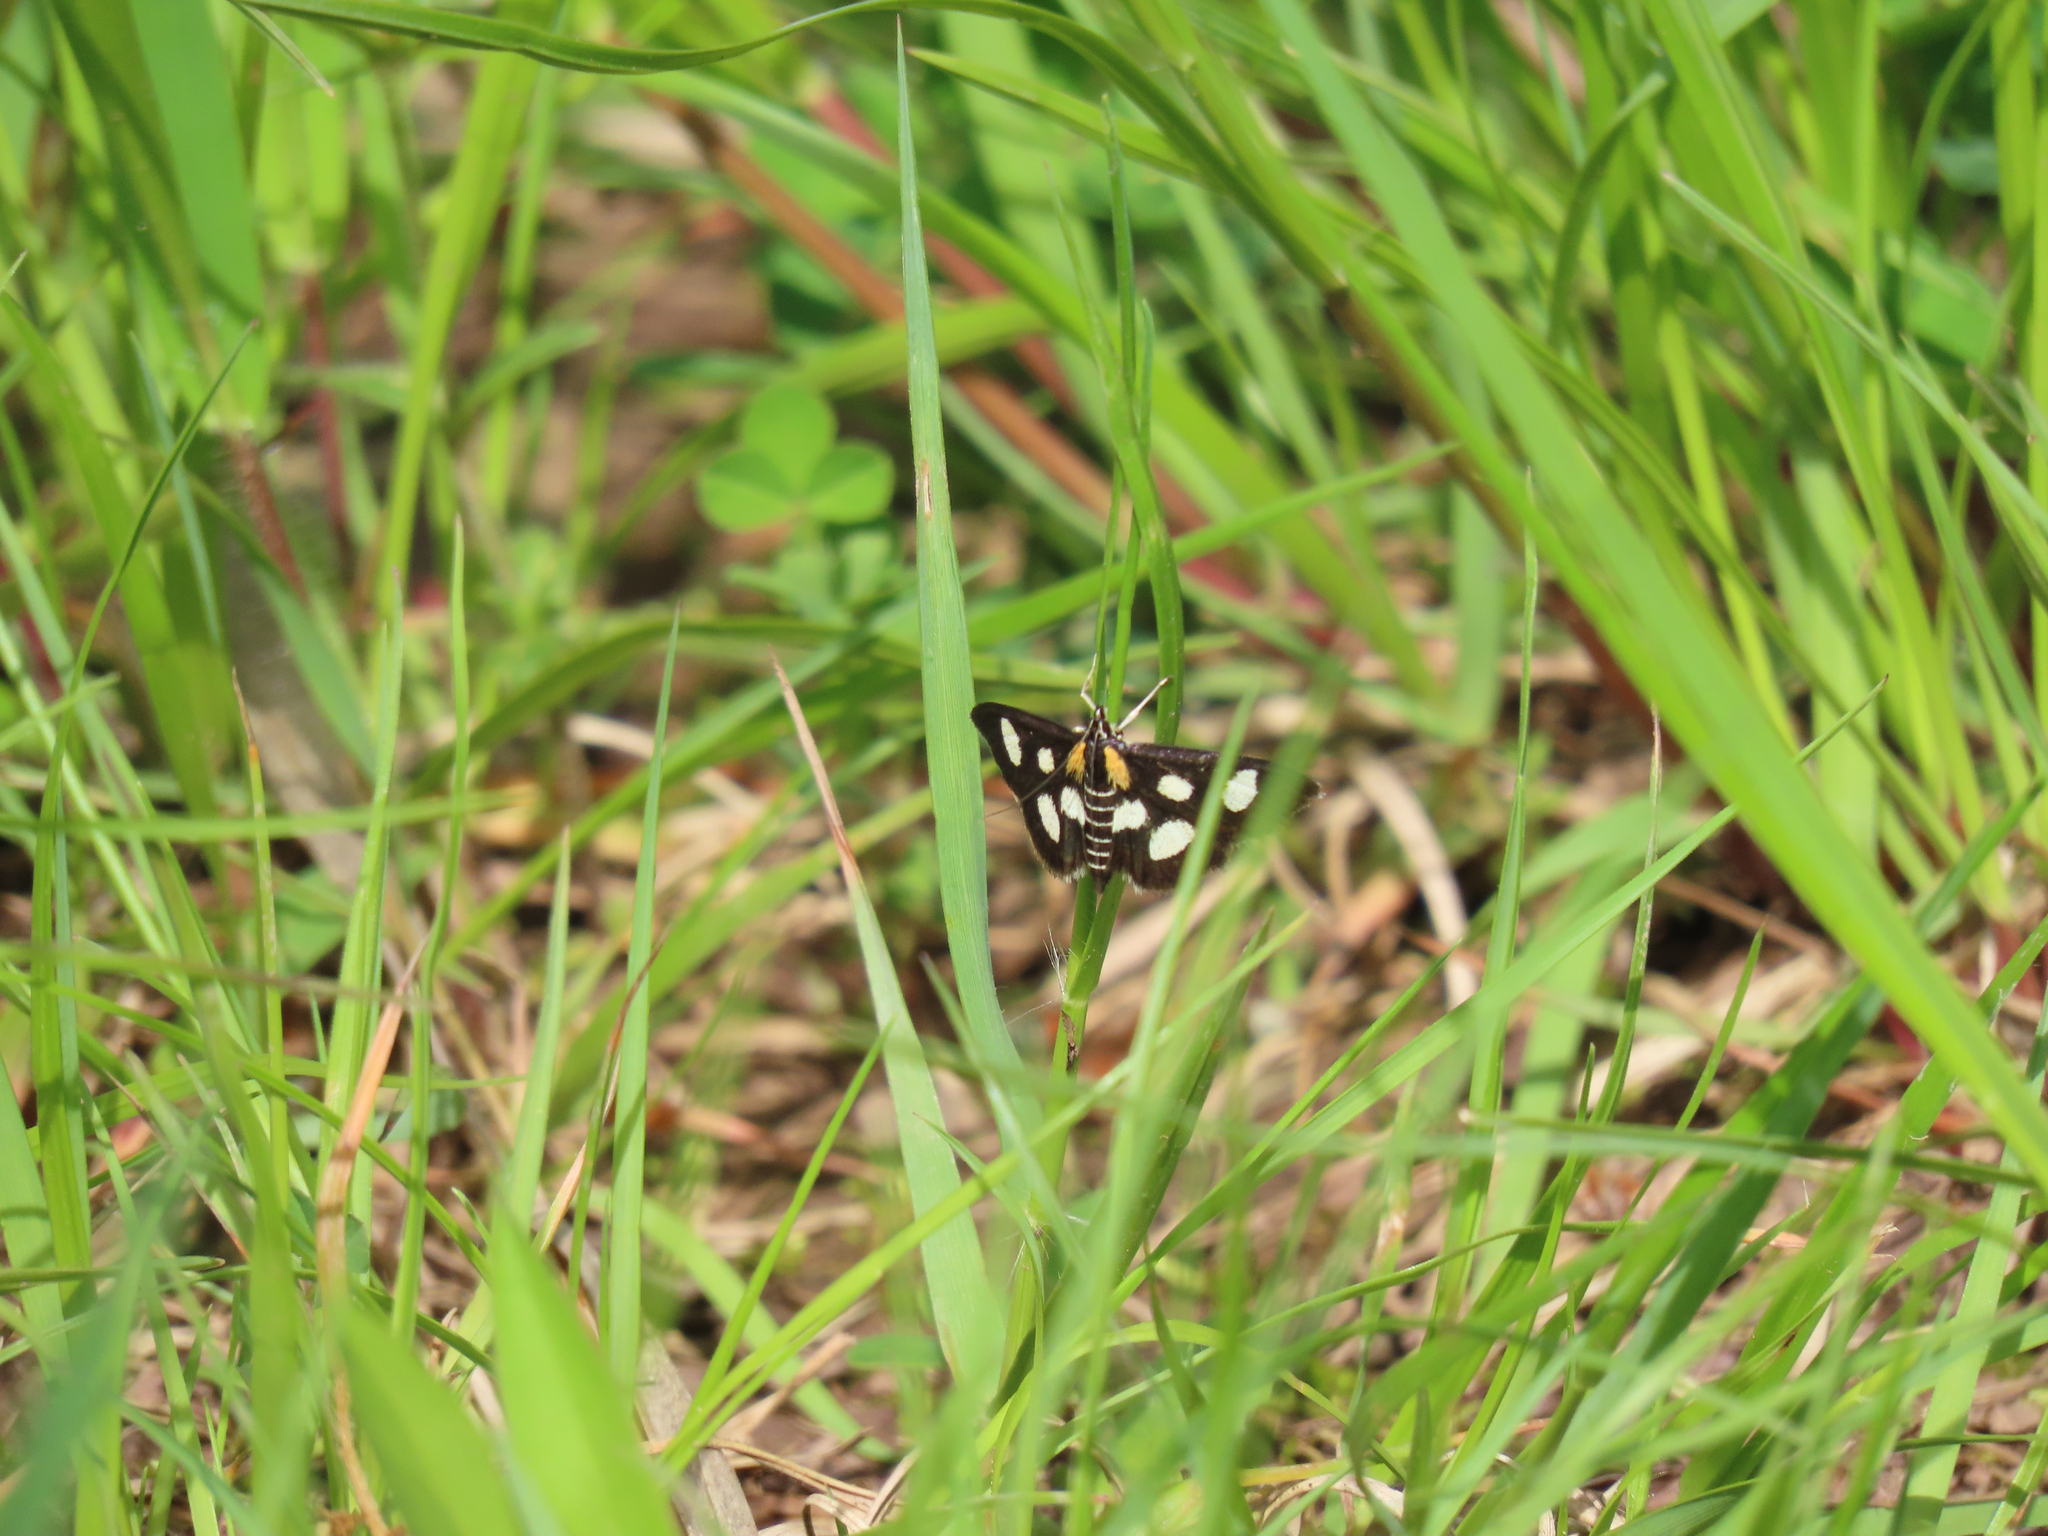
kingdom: Animalia
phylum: Arthropoda
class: Insecta
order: Lepidoptera
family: Crambidae
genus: Anania
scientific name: Anania funebris
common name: White-spotted sable moth
